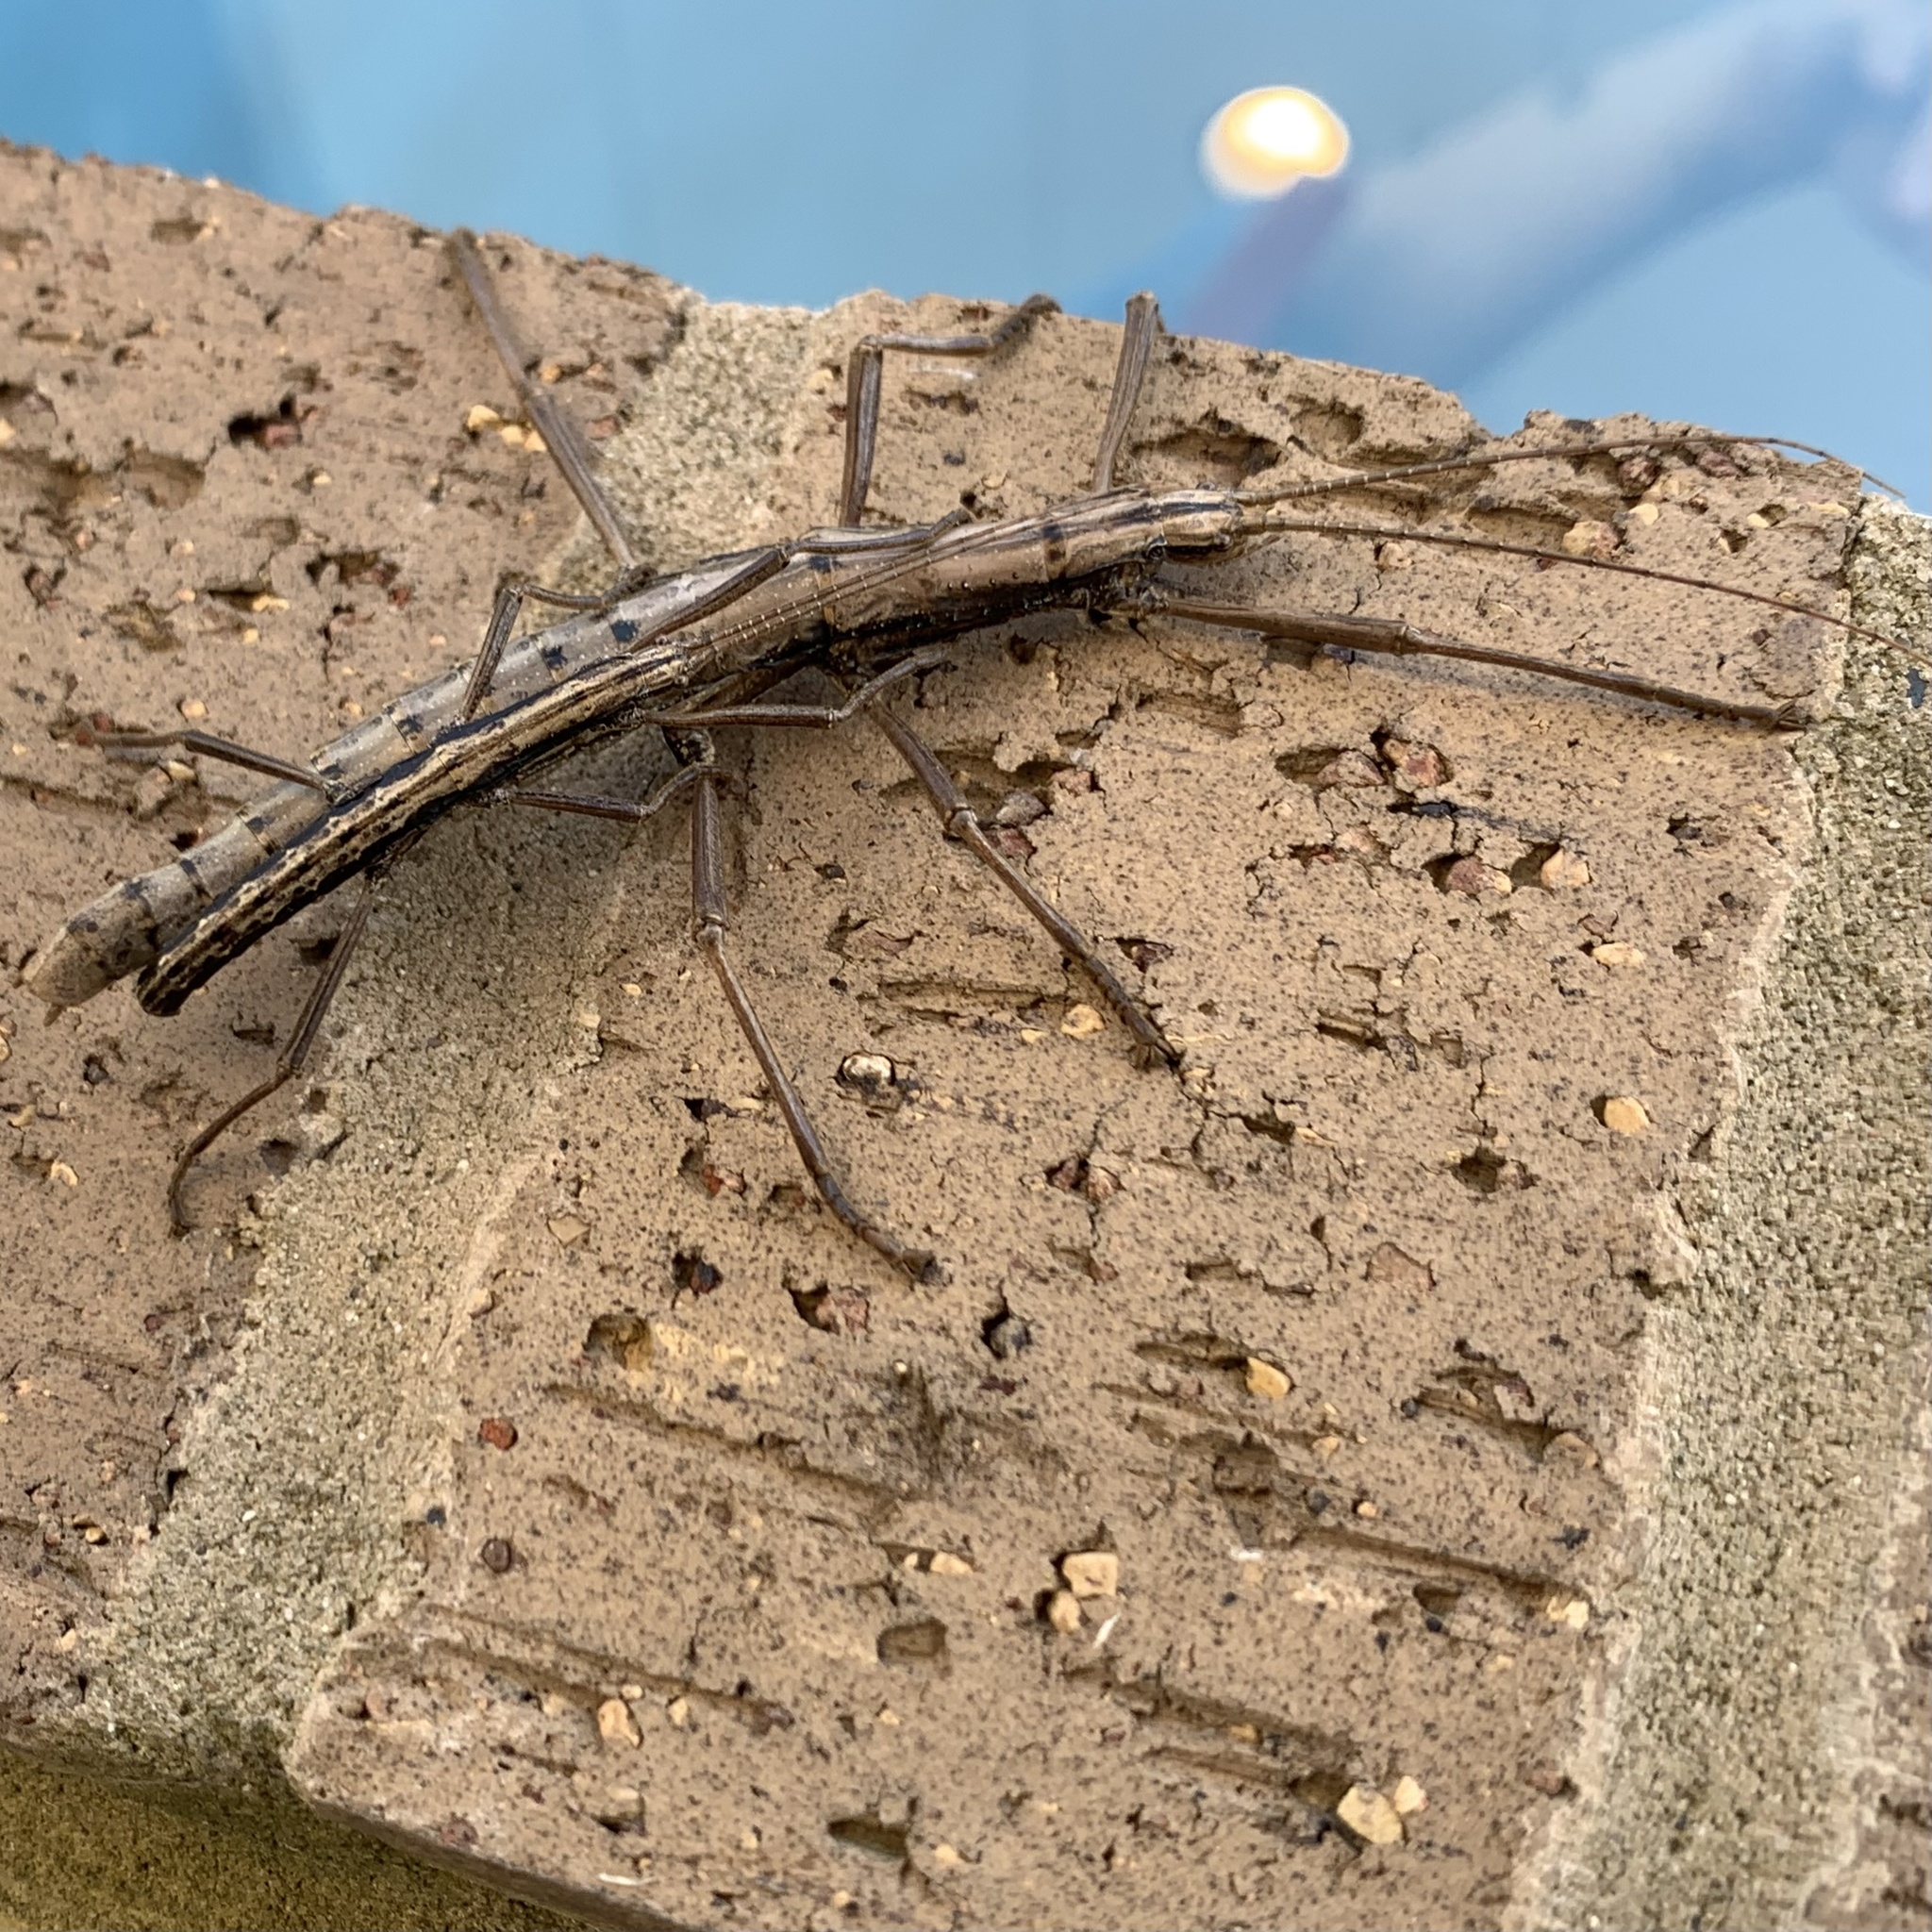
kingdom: Animalia
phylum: Arthropoda
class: Insecta
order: Phasmida
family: Pseudophasmatidae
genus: Anisomorpha
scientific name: Anisomorpha ferruginea
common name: Dark walkingstick
